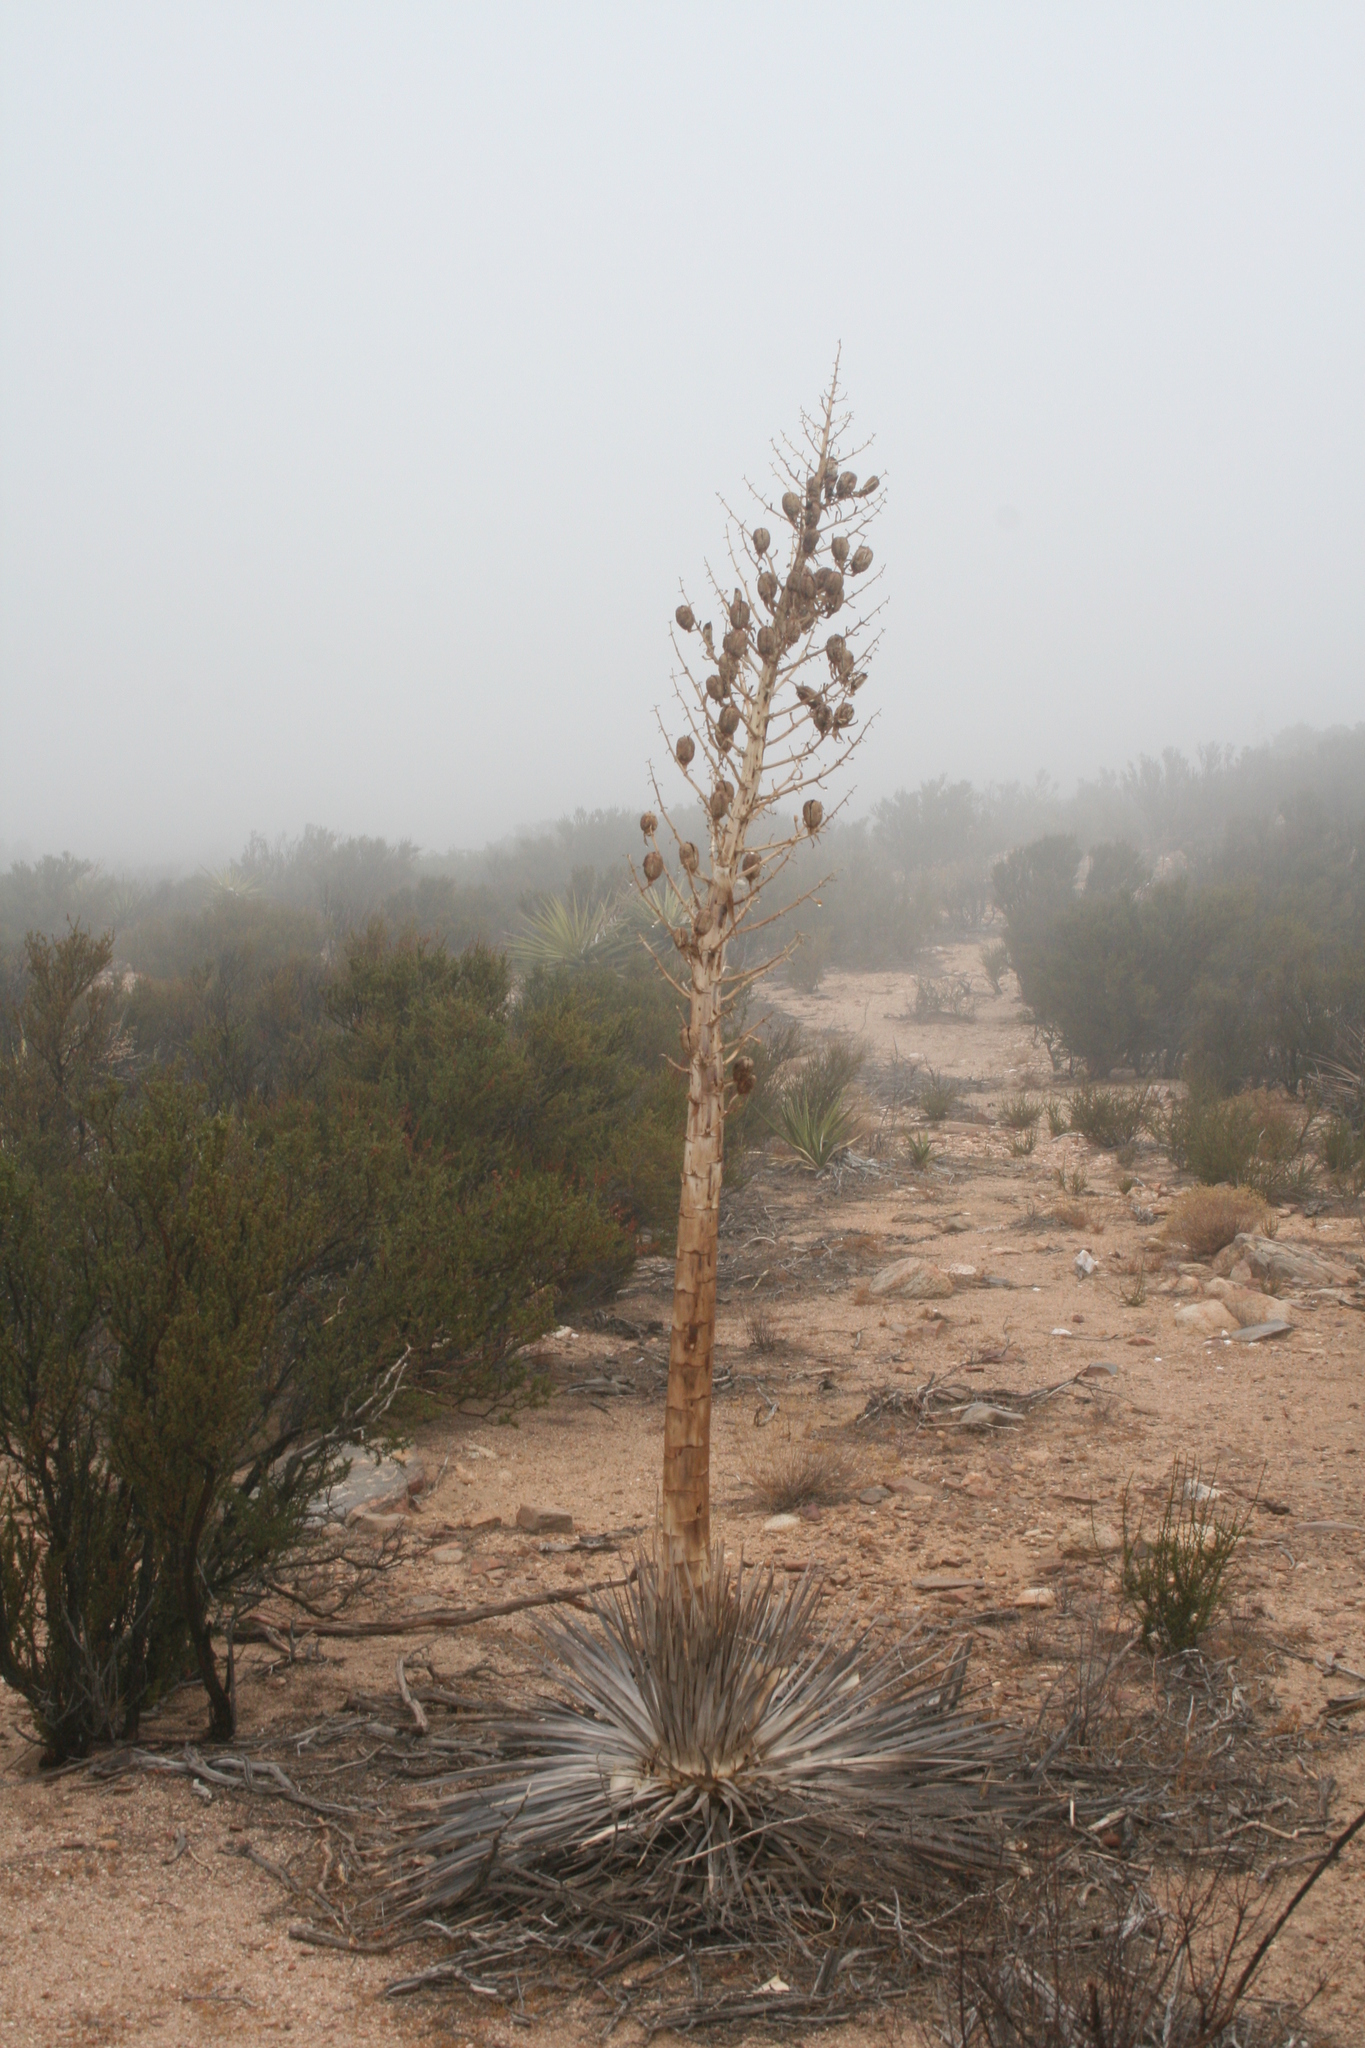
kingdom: Plantae
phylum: Tracheophyta
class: Liliopsida
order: Asparagales
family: Asparagaceae
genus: Hesperoyucca
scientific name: Hesperoyucca whipplei
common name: Our lord's-candle
